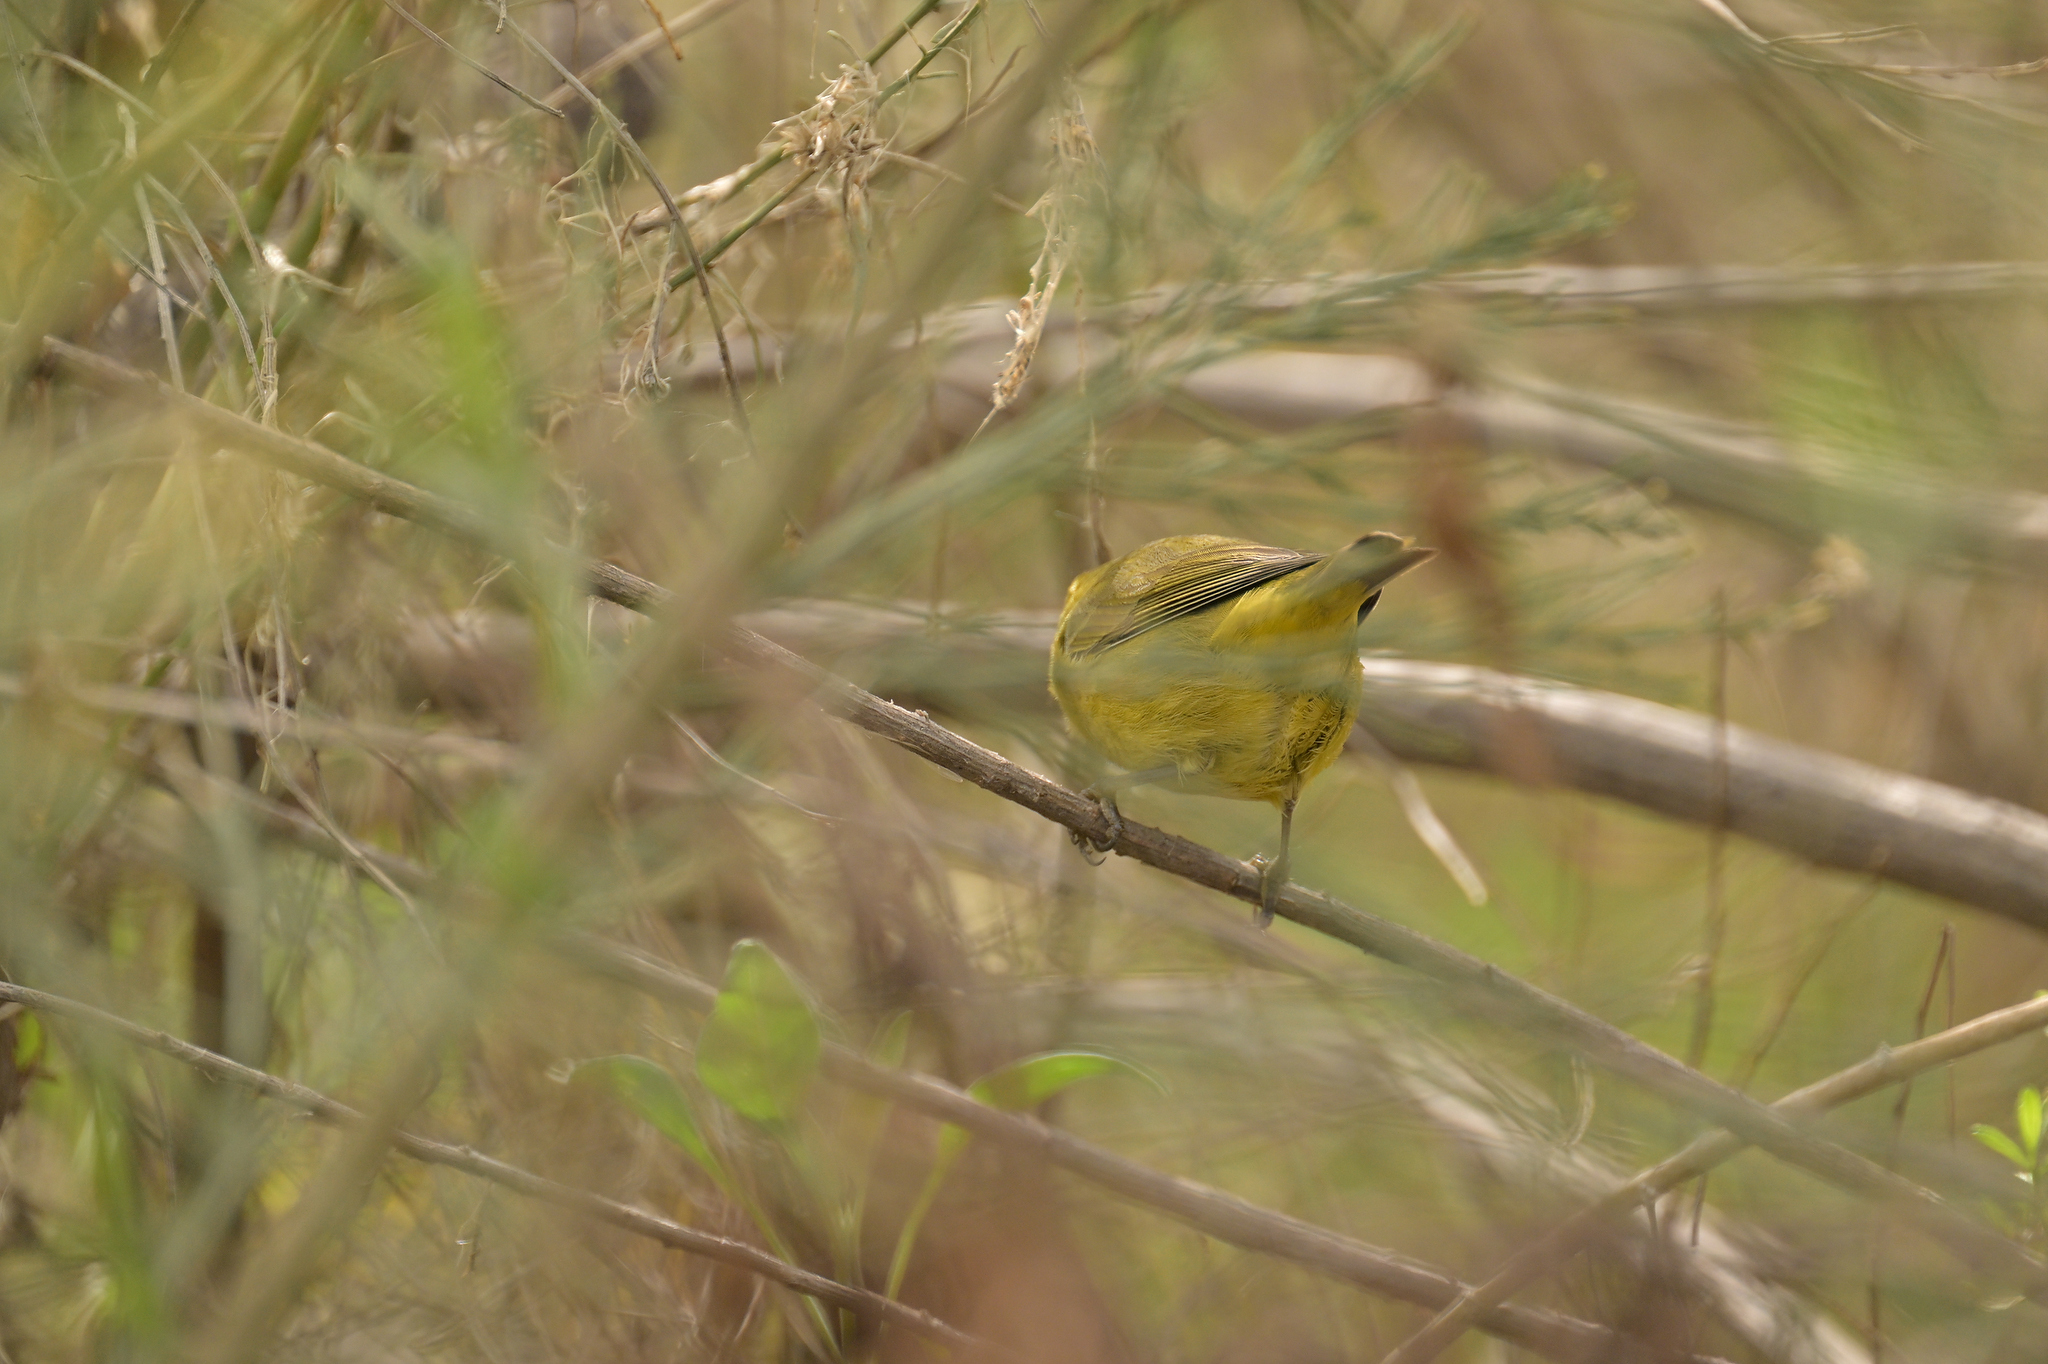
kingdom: Animalia
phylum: Chordata
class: Aves
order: Passeriformes
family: Parulidae
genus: Leiothlypis
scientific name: Leiothlypis celata
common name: Orange-crowned warbler
